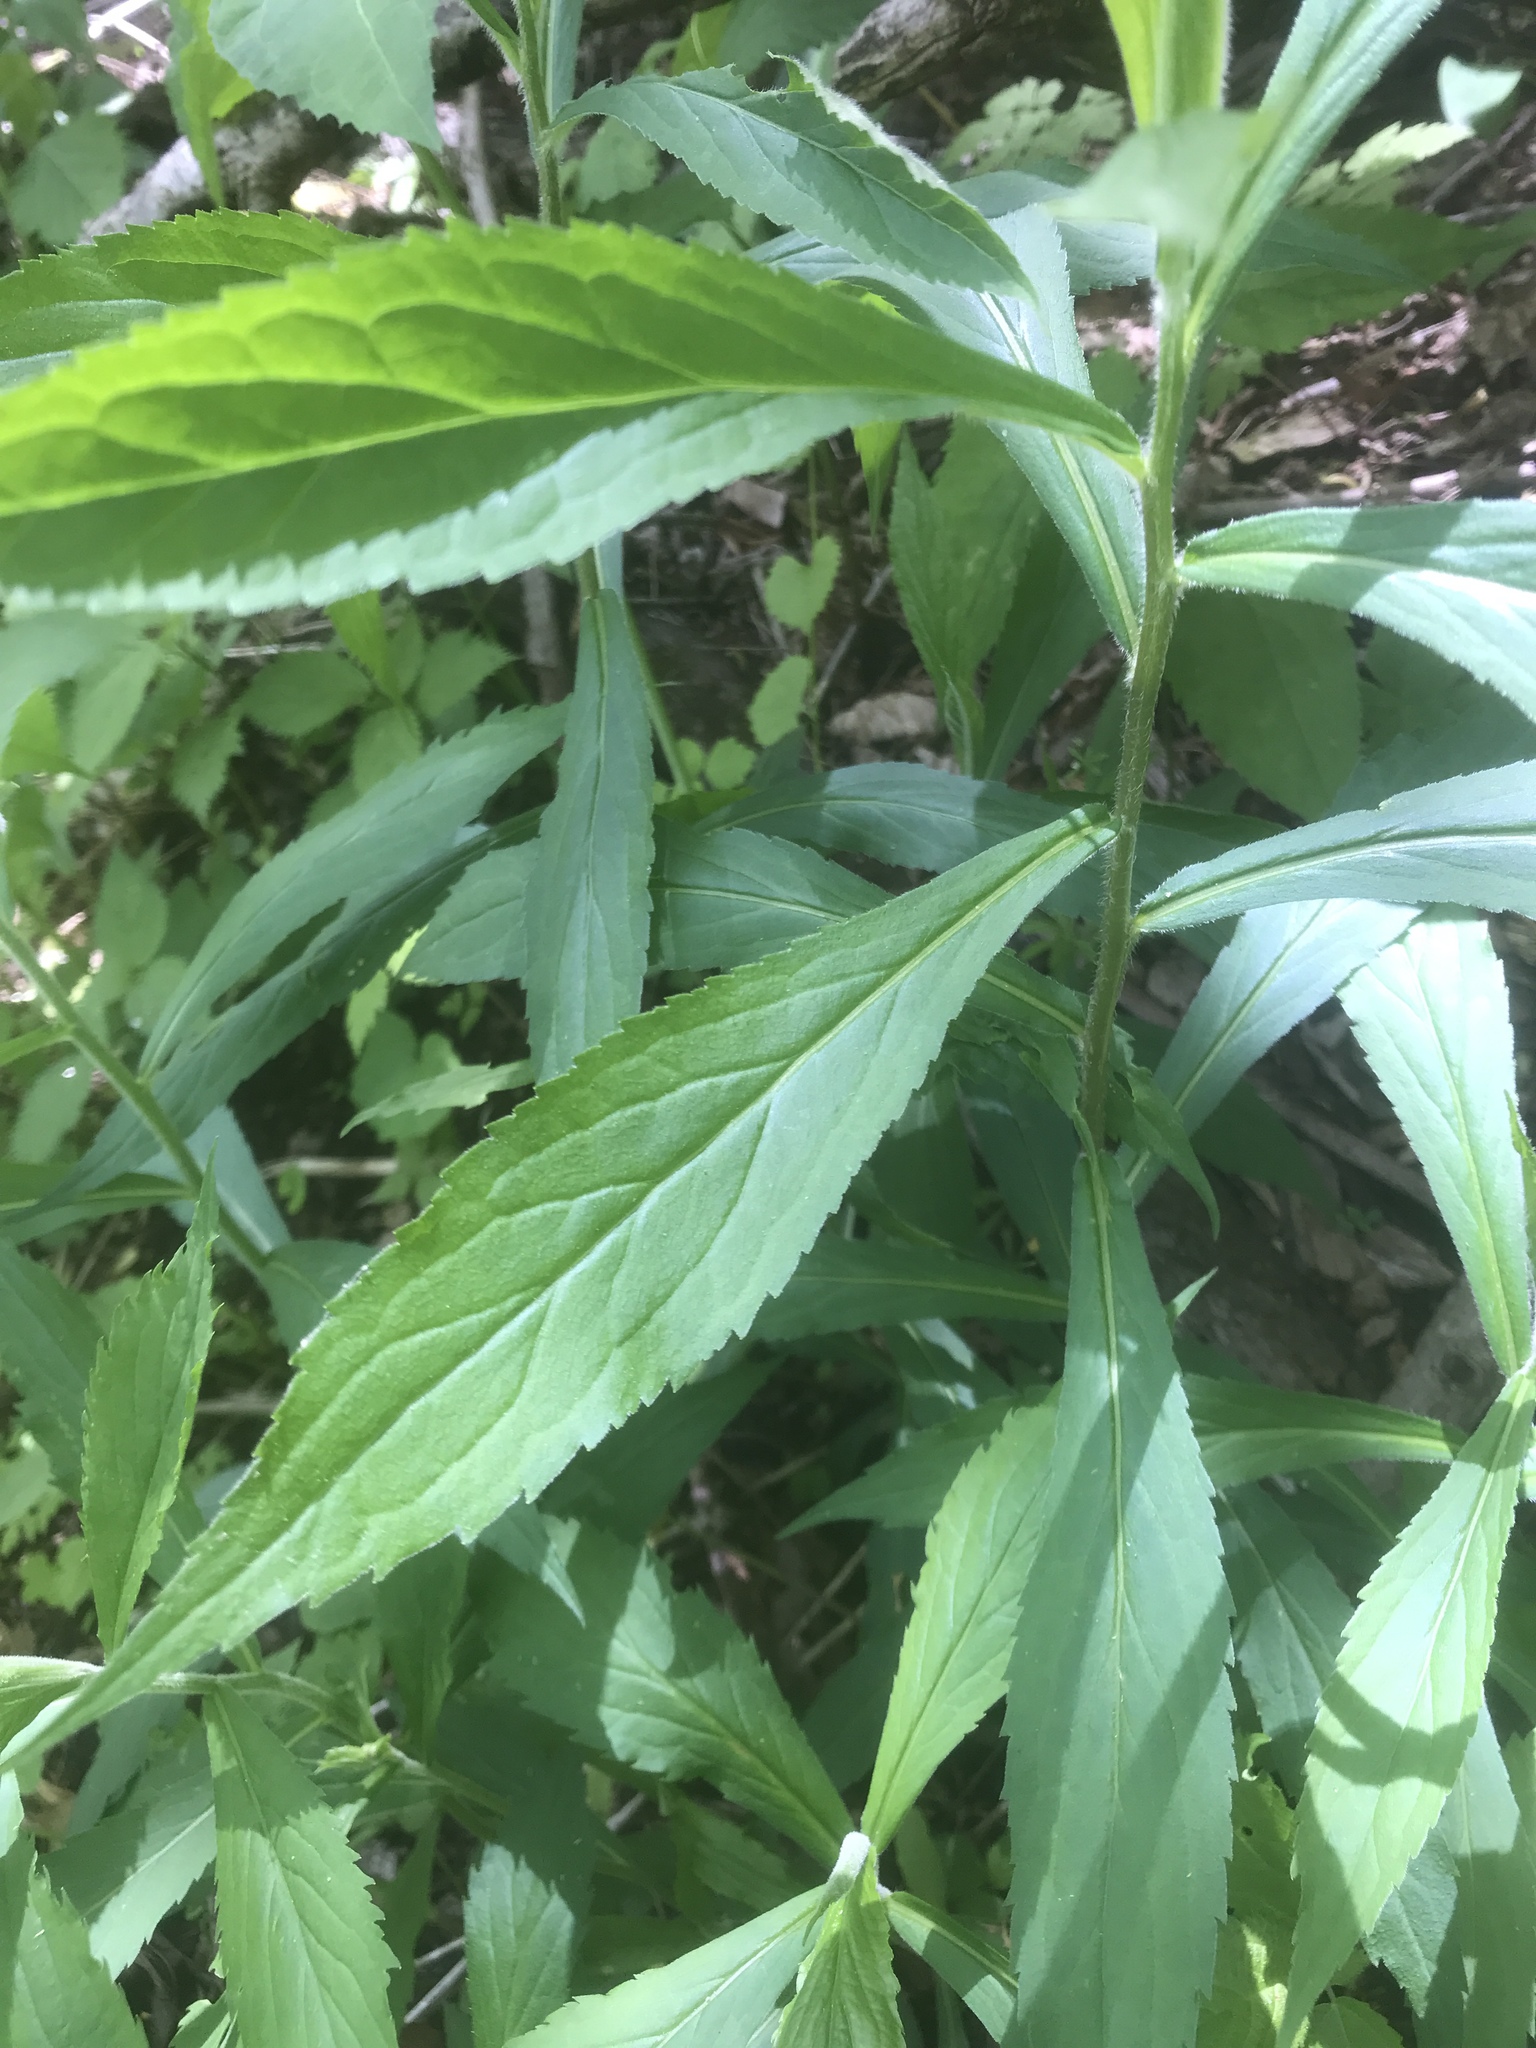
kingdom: Plantae
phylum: Tracheophyta
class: Magnoliopsida
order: Asterales
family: Asteraceae
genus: Solidago
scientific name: Solidago curtisii
